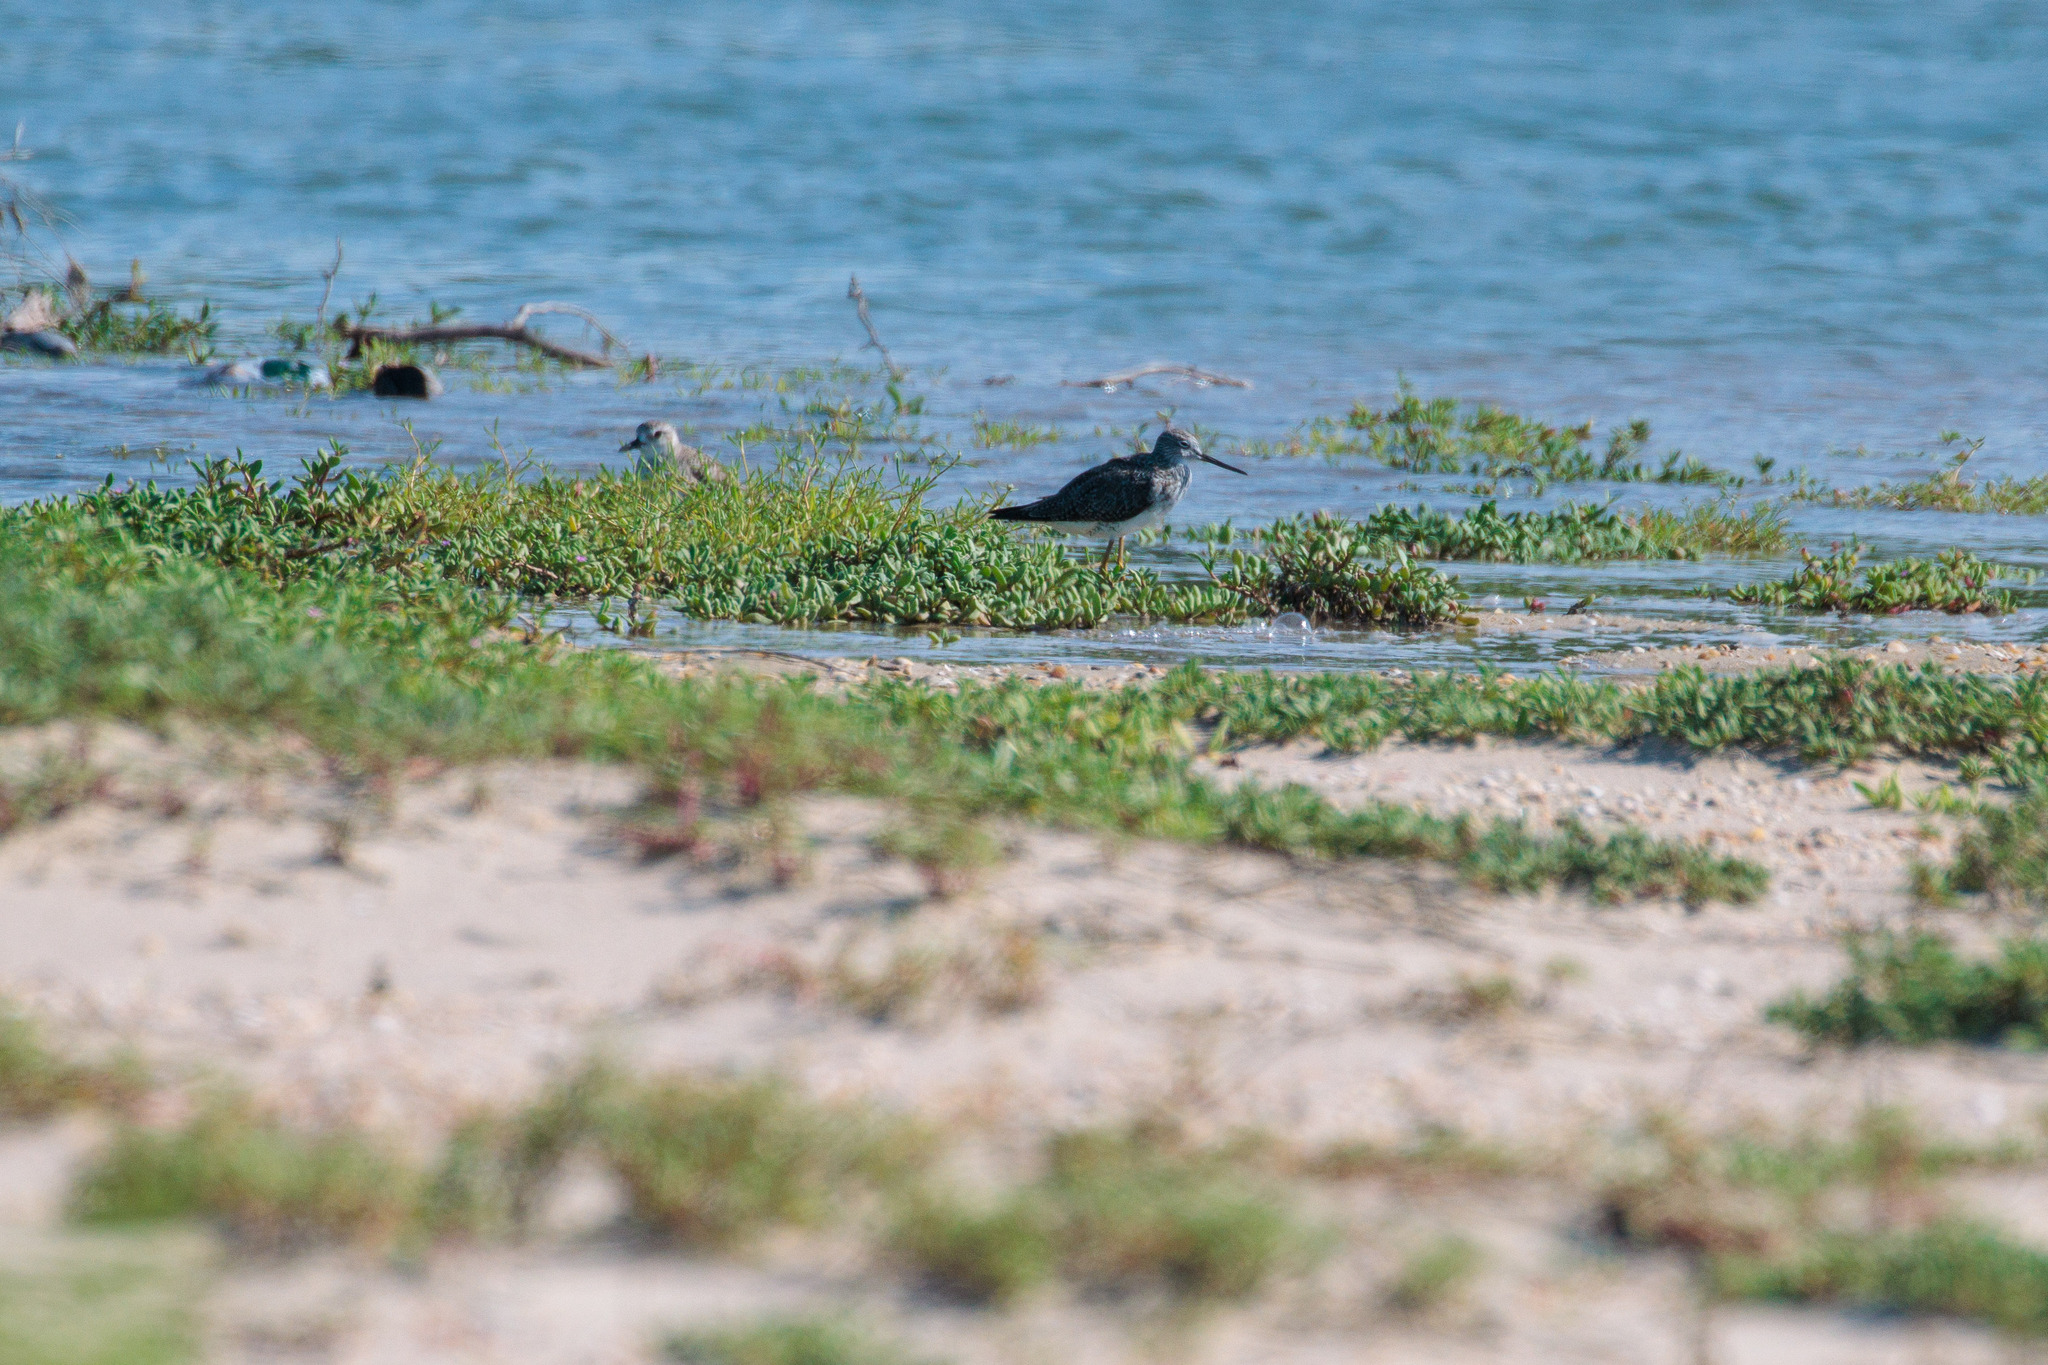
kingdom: Animalia
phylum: Chordata
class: Aves
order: Charadriiformes
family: Scolopacidae
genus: Tringa
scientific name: Tringa melanoleuca
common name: Greater yellowlegs
